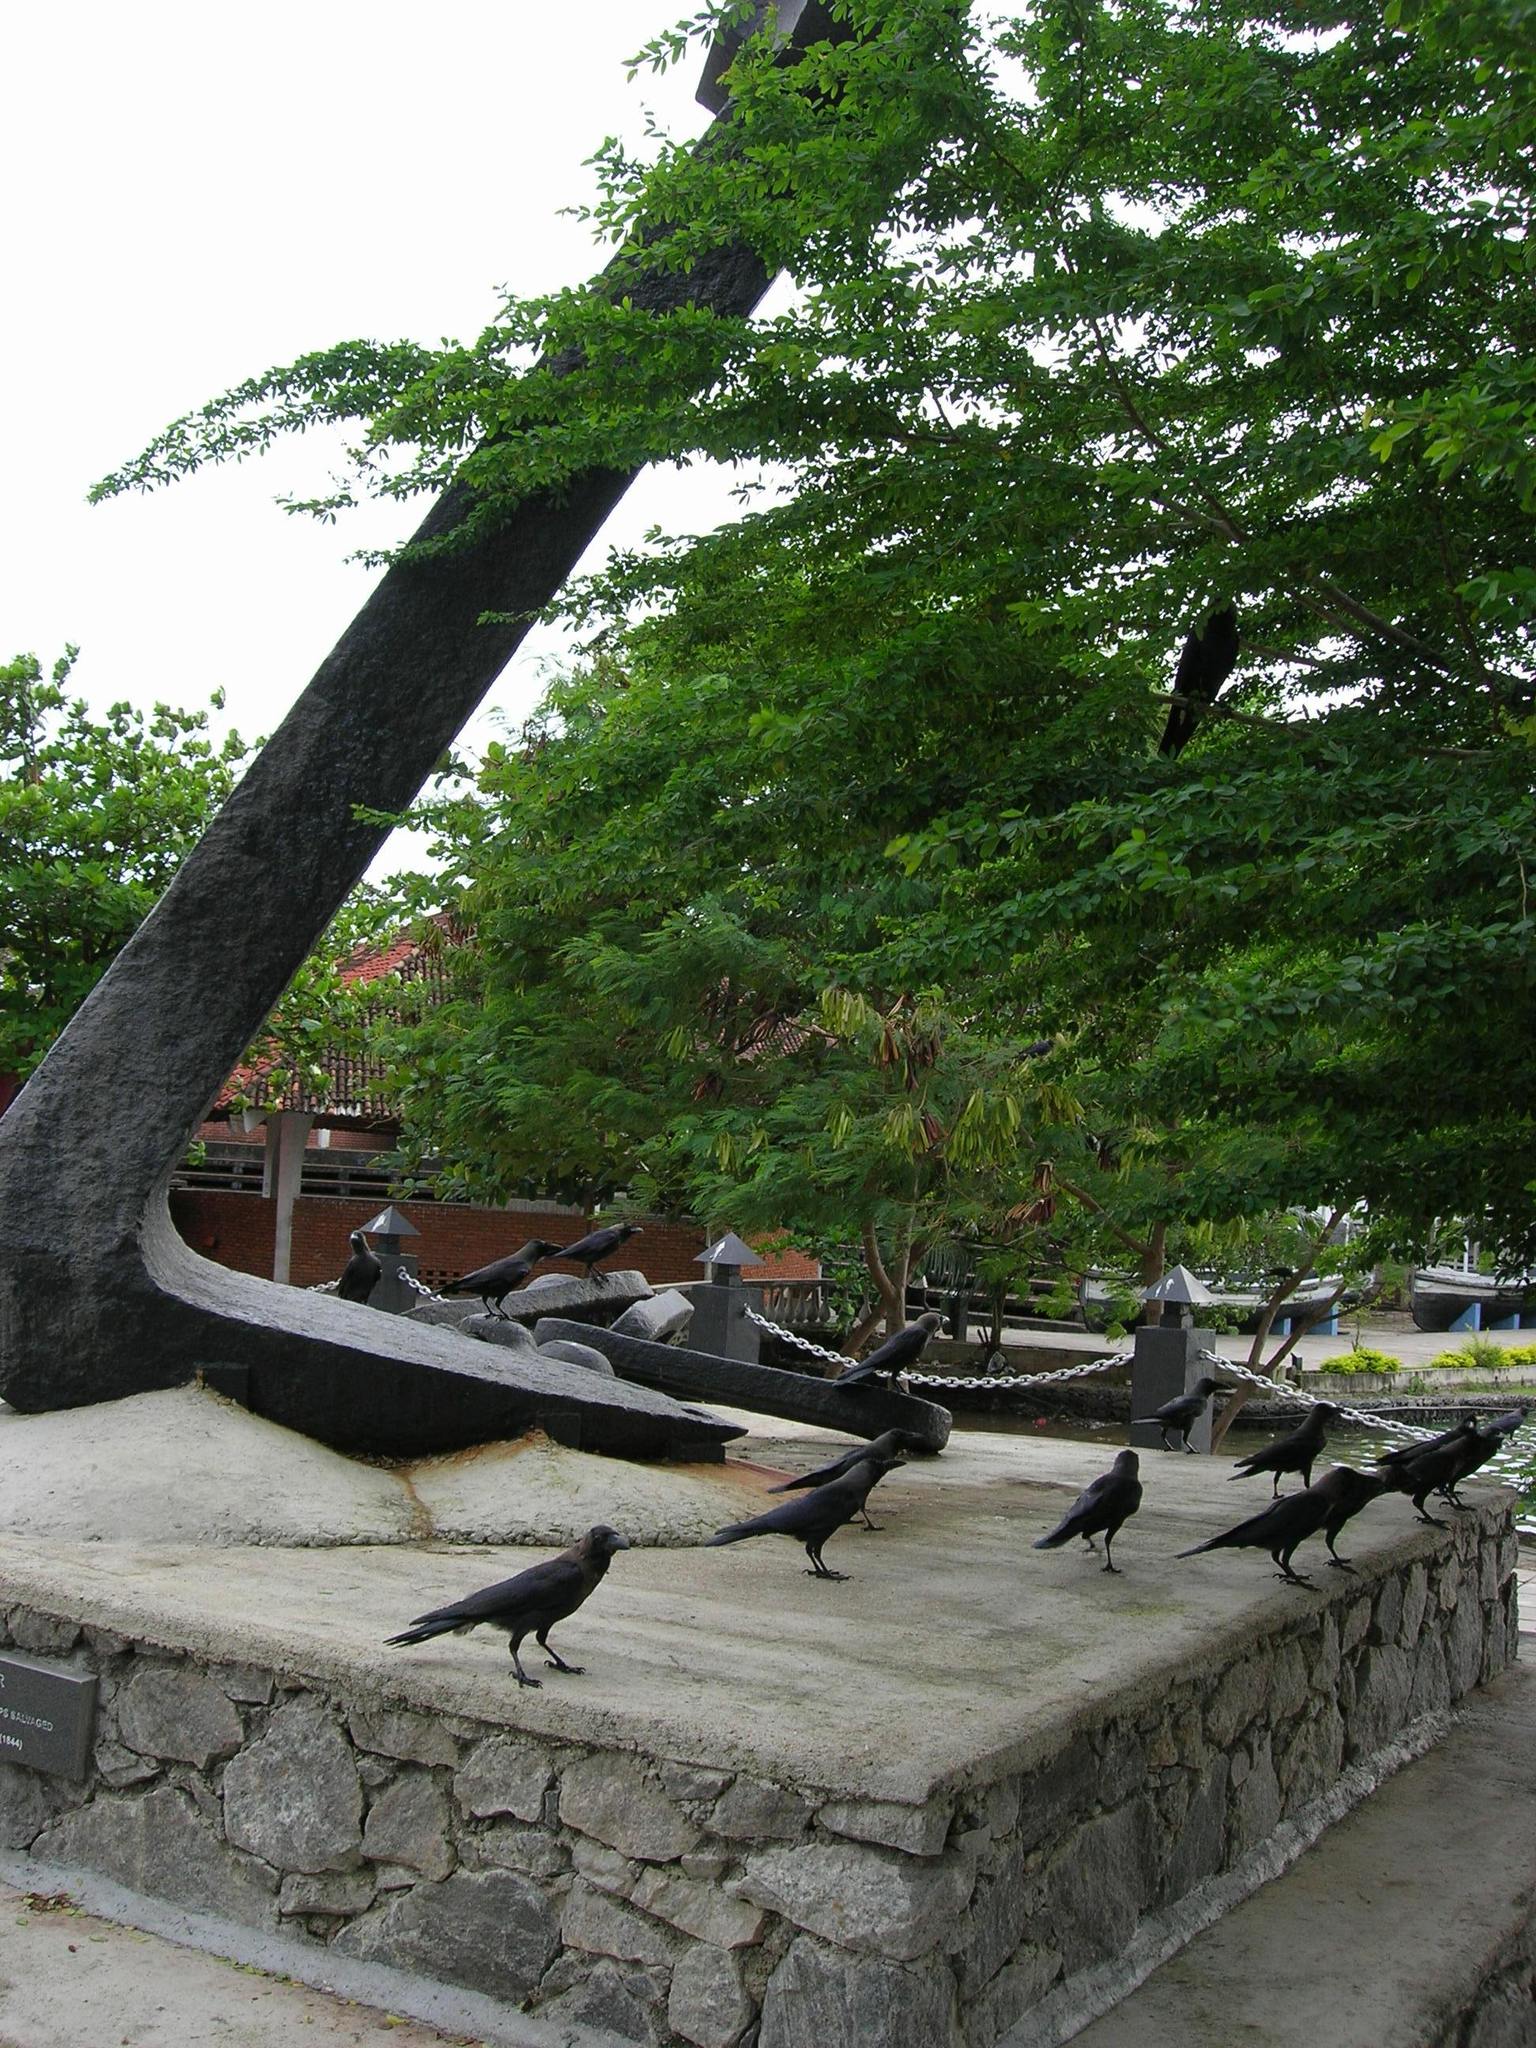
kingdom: Animalia
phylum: Chordata
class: Aves
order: Passeriformes
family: Corvidae
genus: Corvus
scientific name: Corvus splendens
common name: House crow
